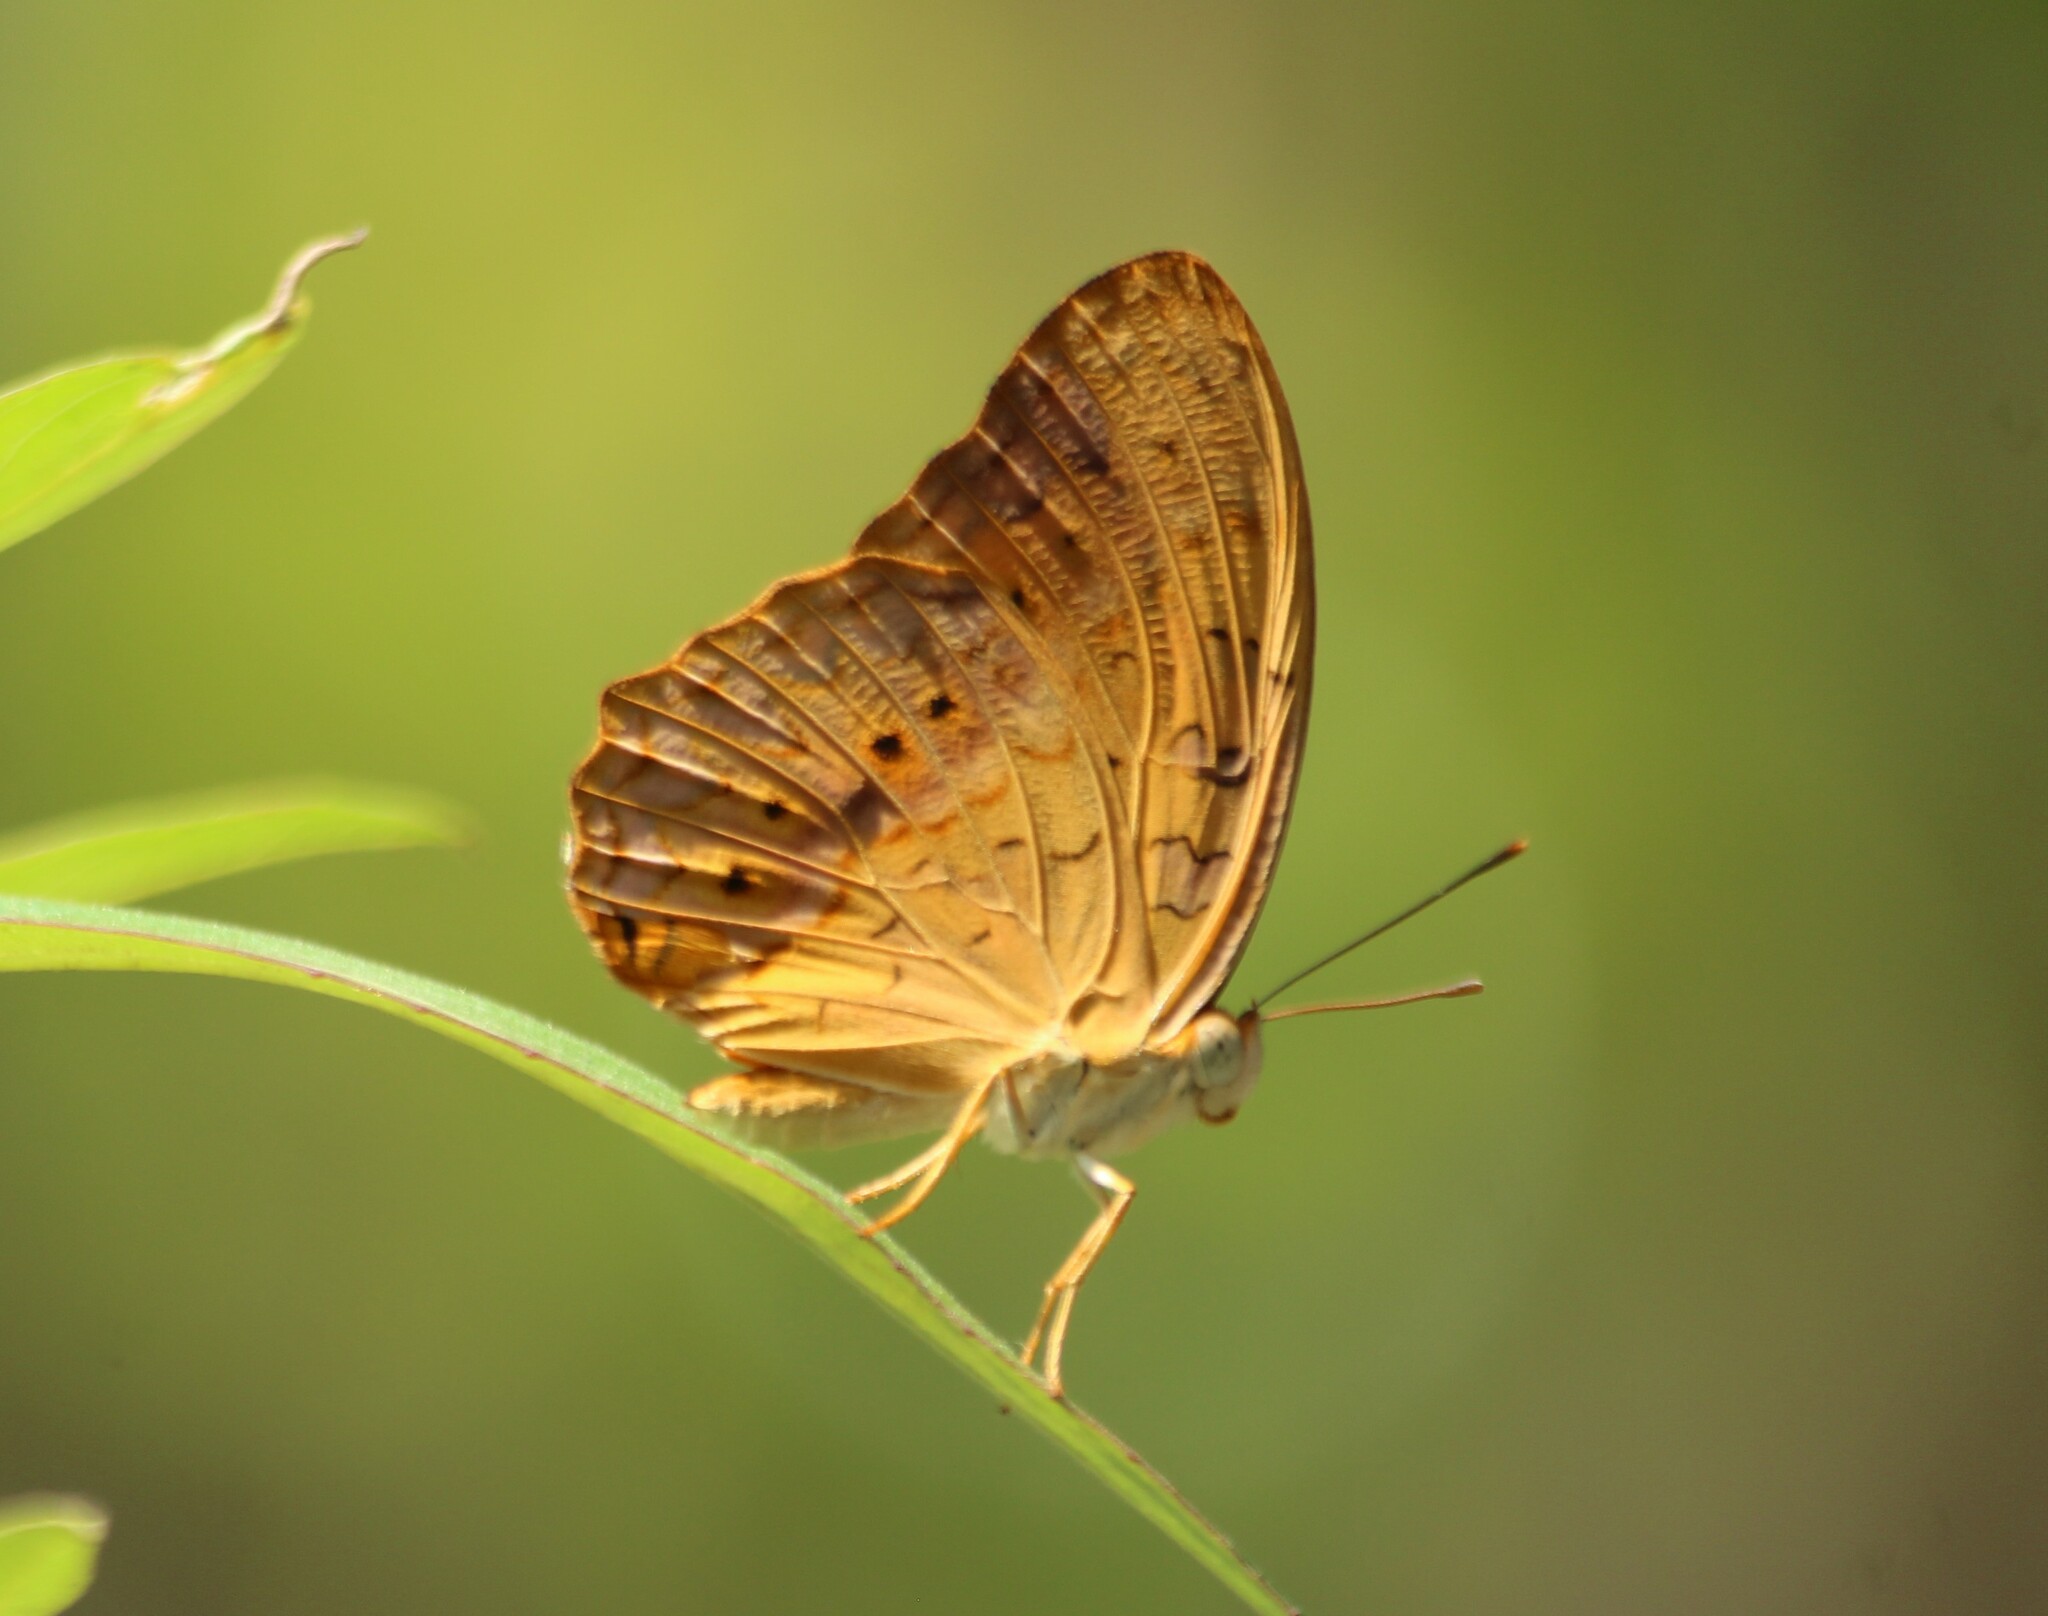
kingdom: Animalia
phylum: Arthropoda
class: Insecta
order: Lepidoptera
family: Nymphalidae
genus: Phalanta
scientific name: Phalanta phalantha
